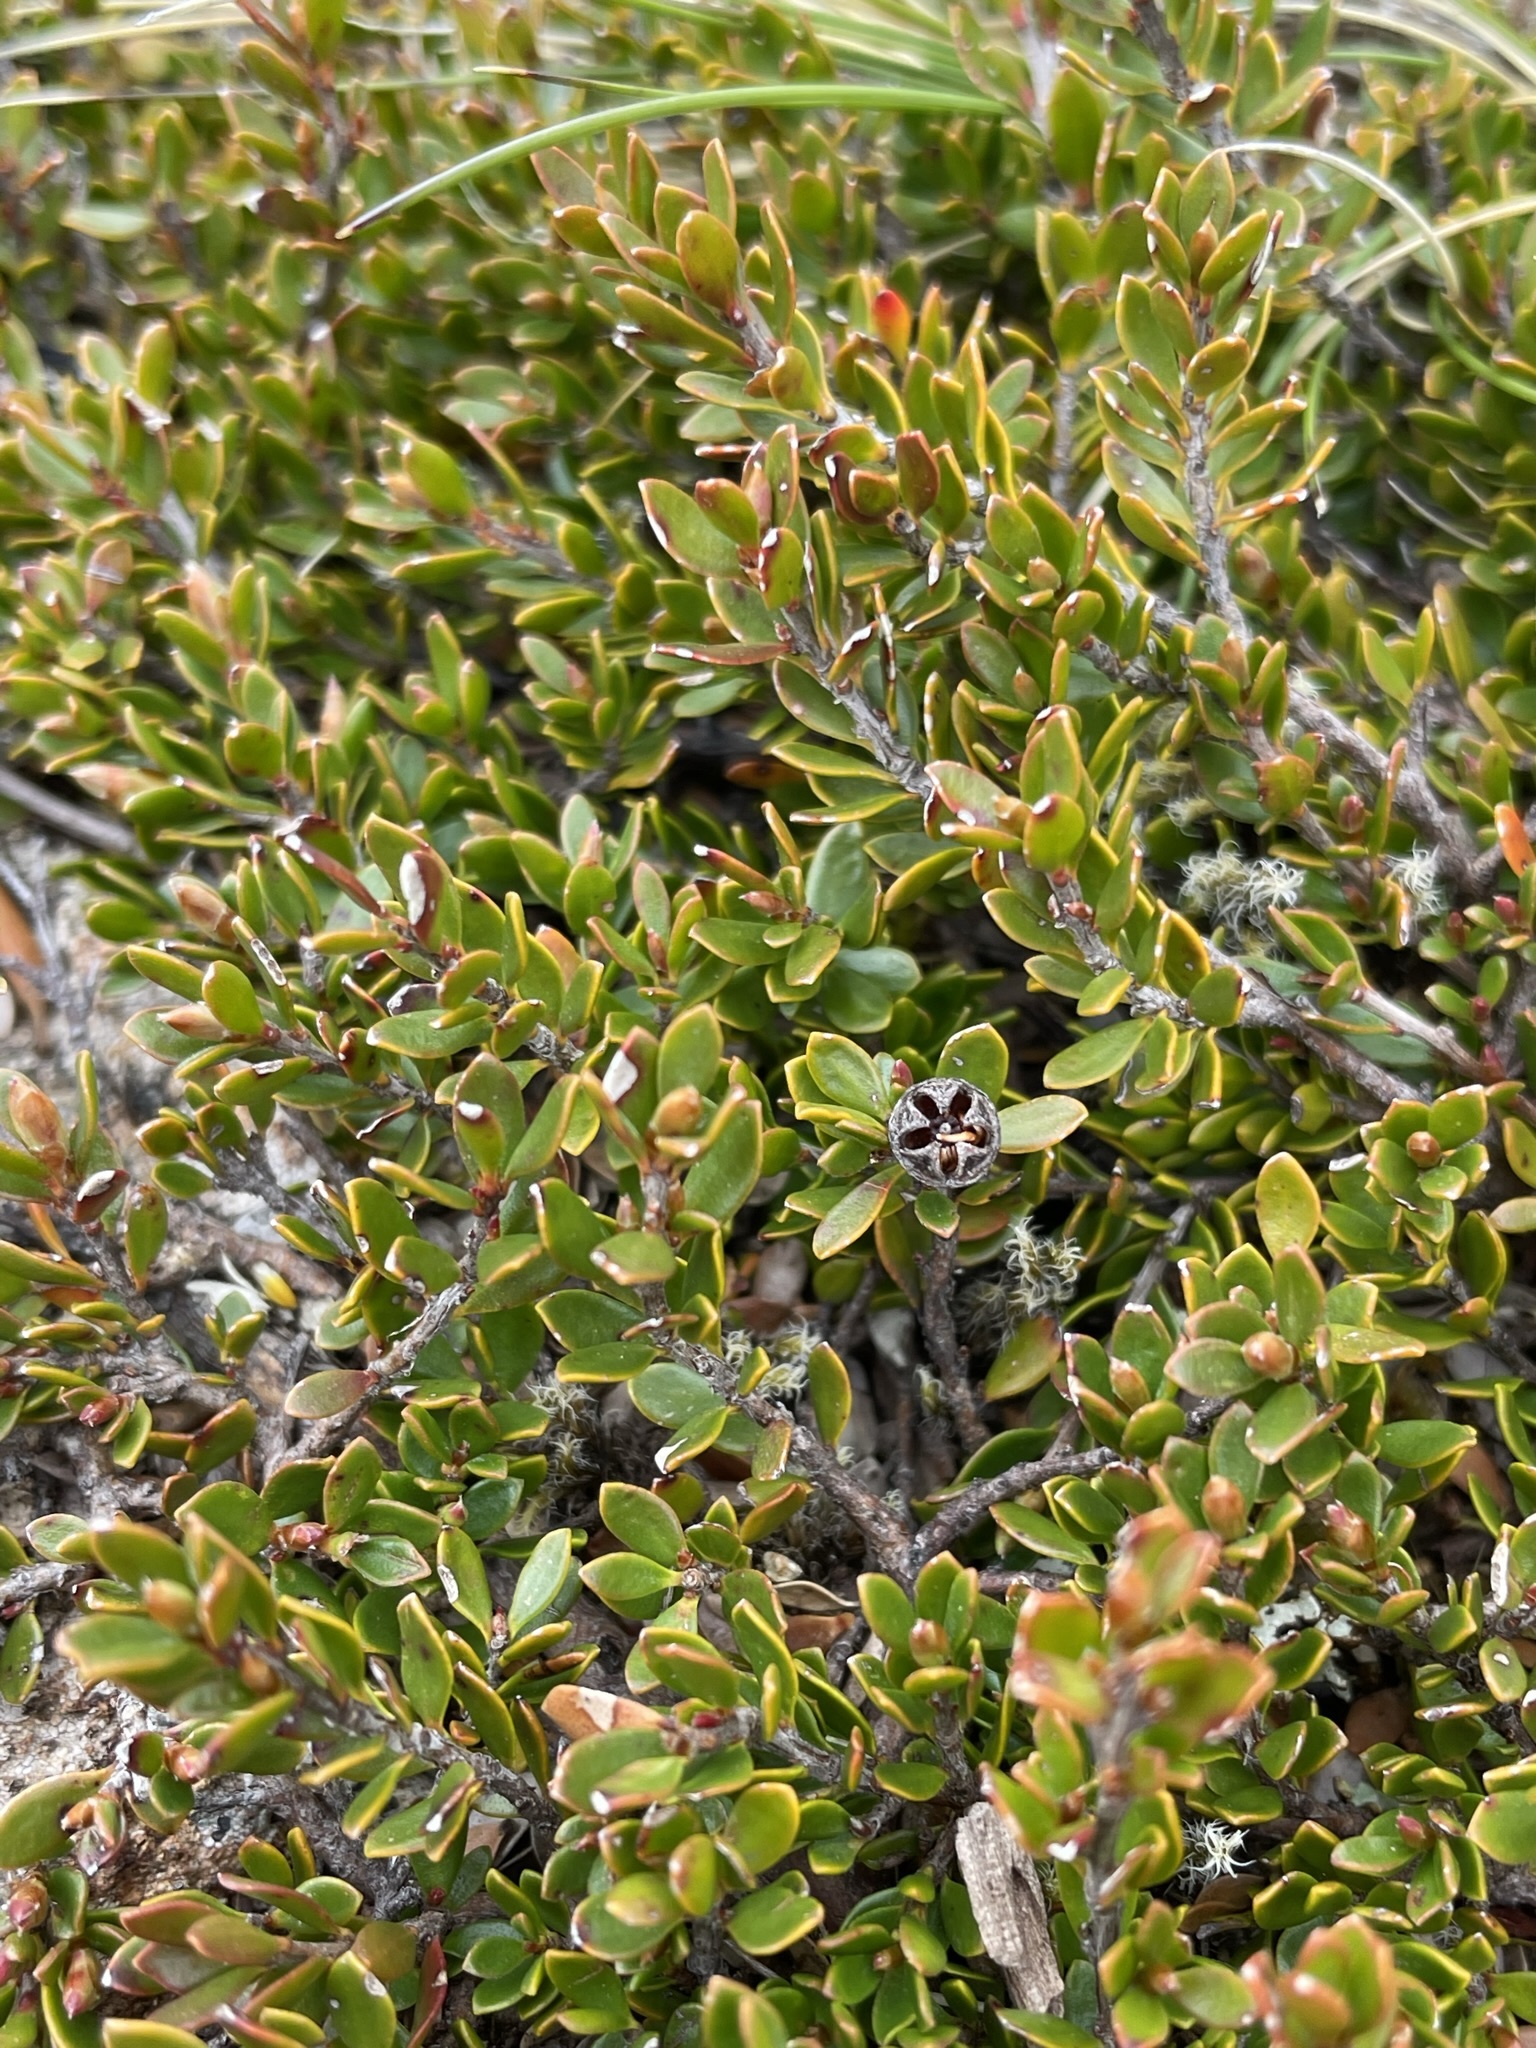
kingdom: Plantae
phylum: Tracheophyta
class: Magnoliopsida
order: Myrtales
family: Myrtaceae
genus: Leptospermum
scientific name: Leptospermum rupestre
